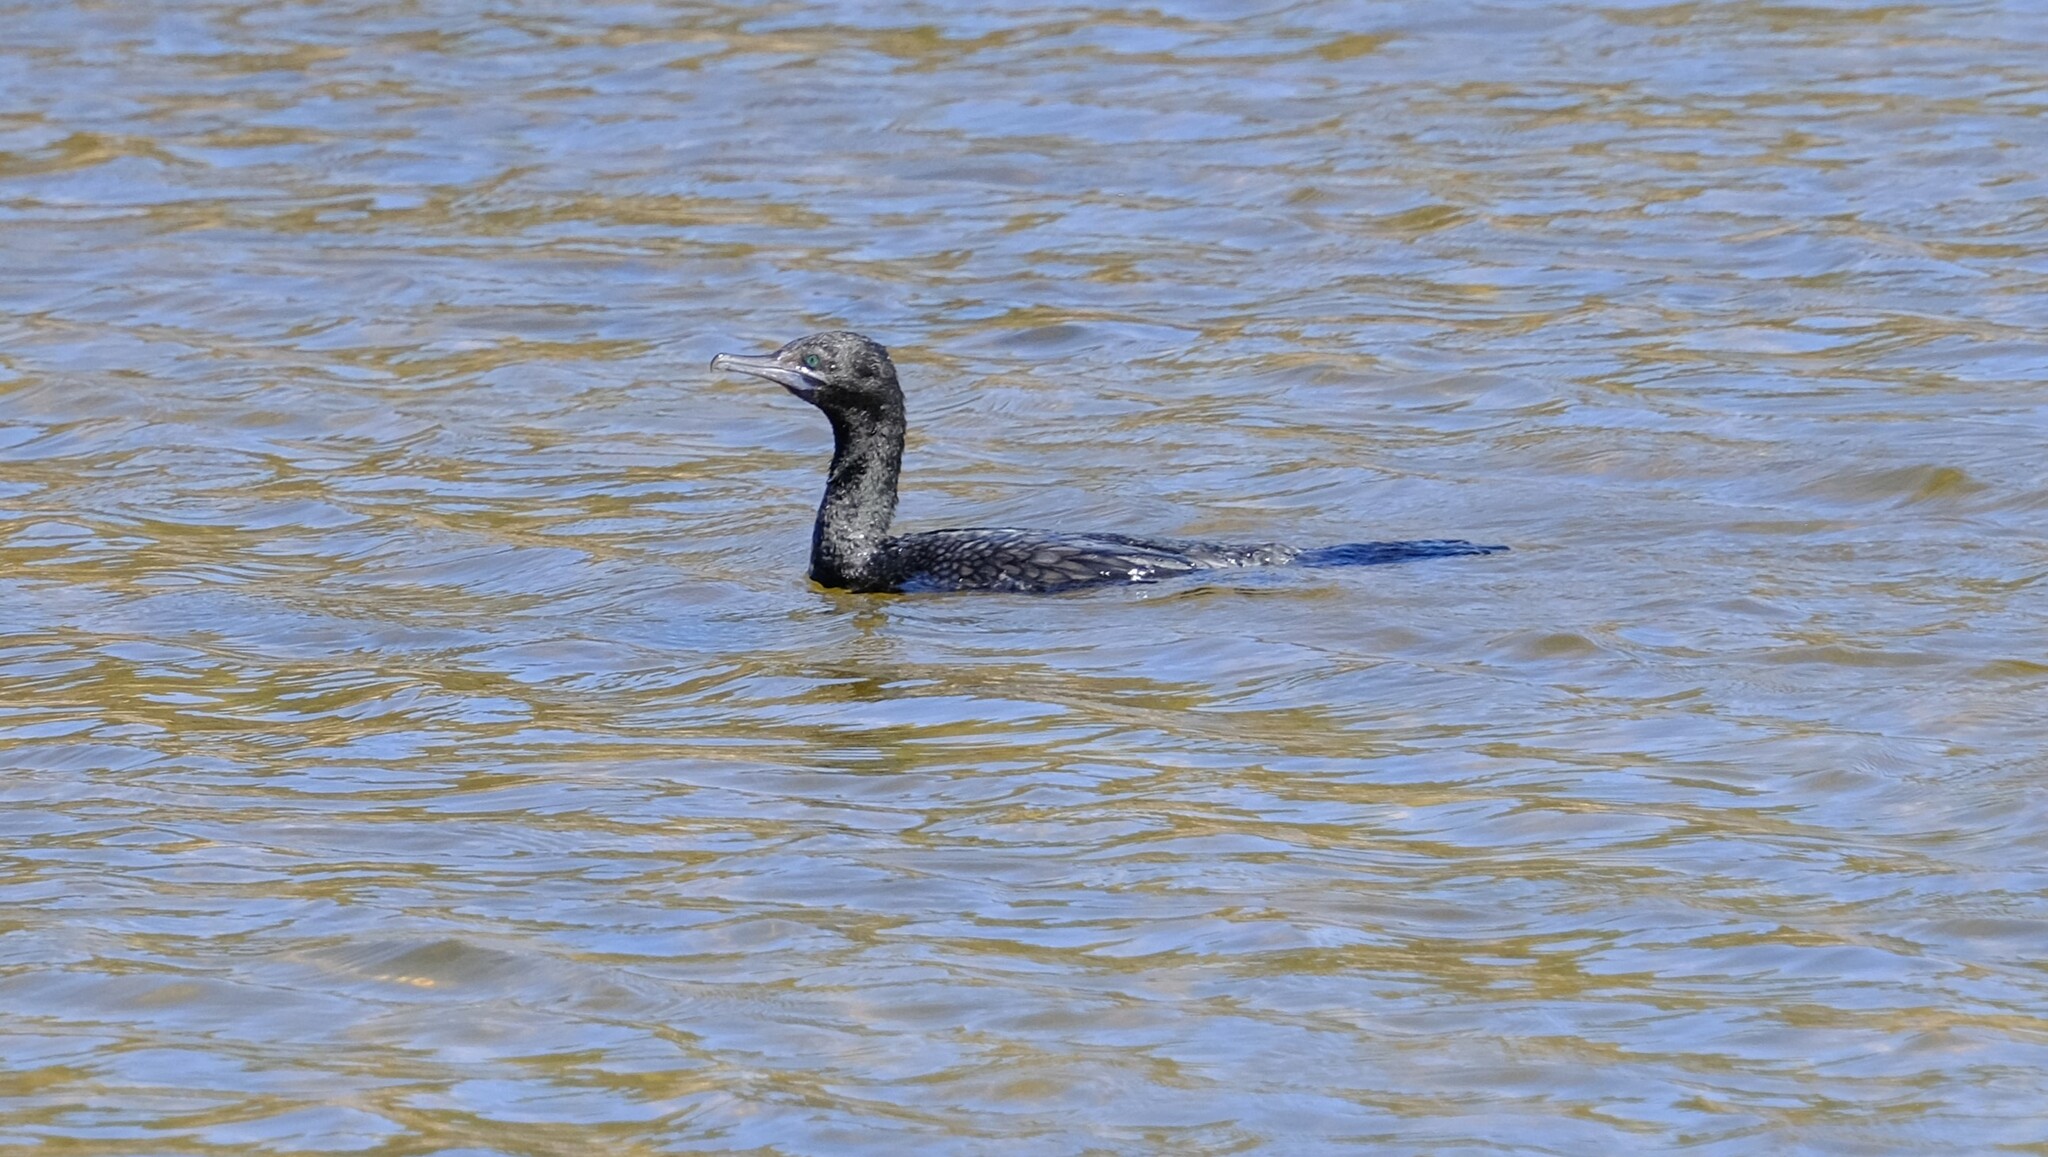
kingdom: Animalia
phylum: Chordata
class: Aves
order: Suliformes
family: Phalacrocoracidae
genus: Phalacrocorax
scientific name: Phalacrocorax sulcirostris
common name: Little black cormorant
